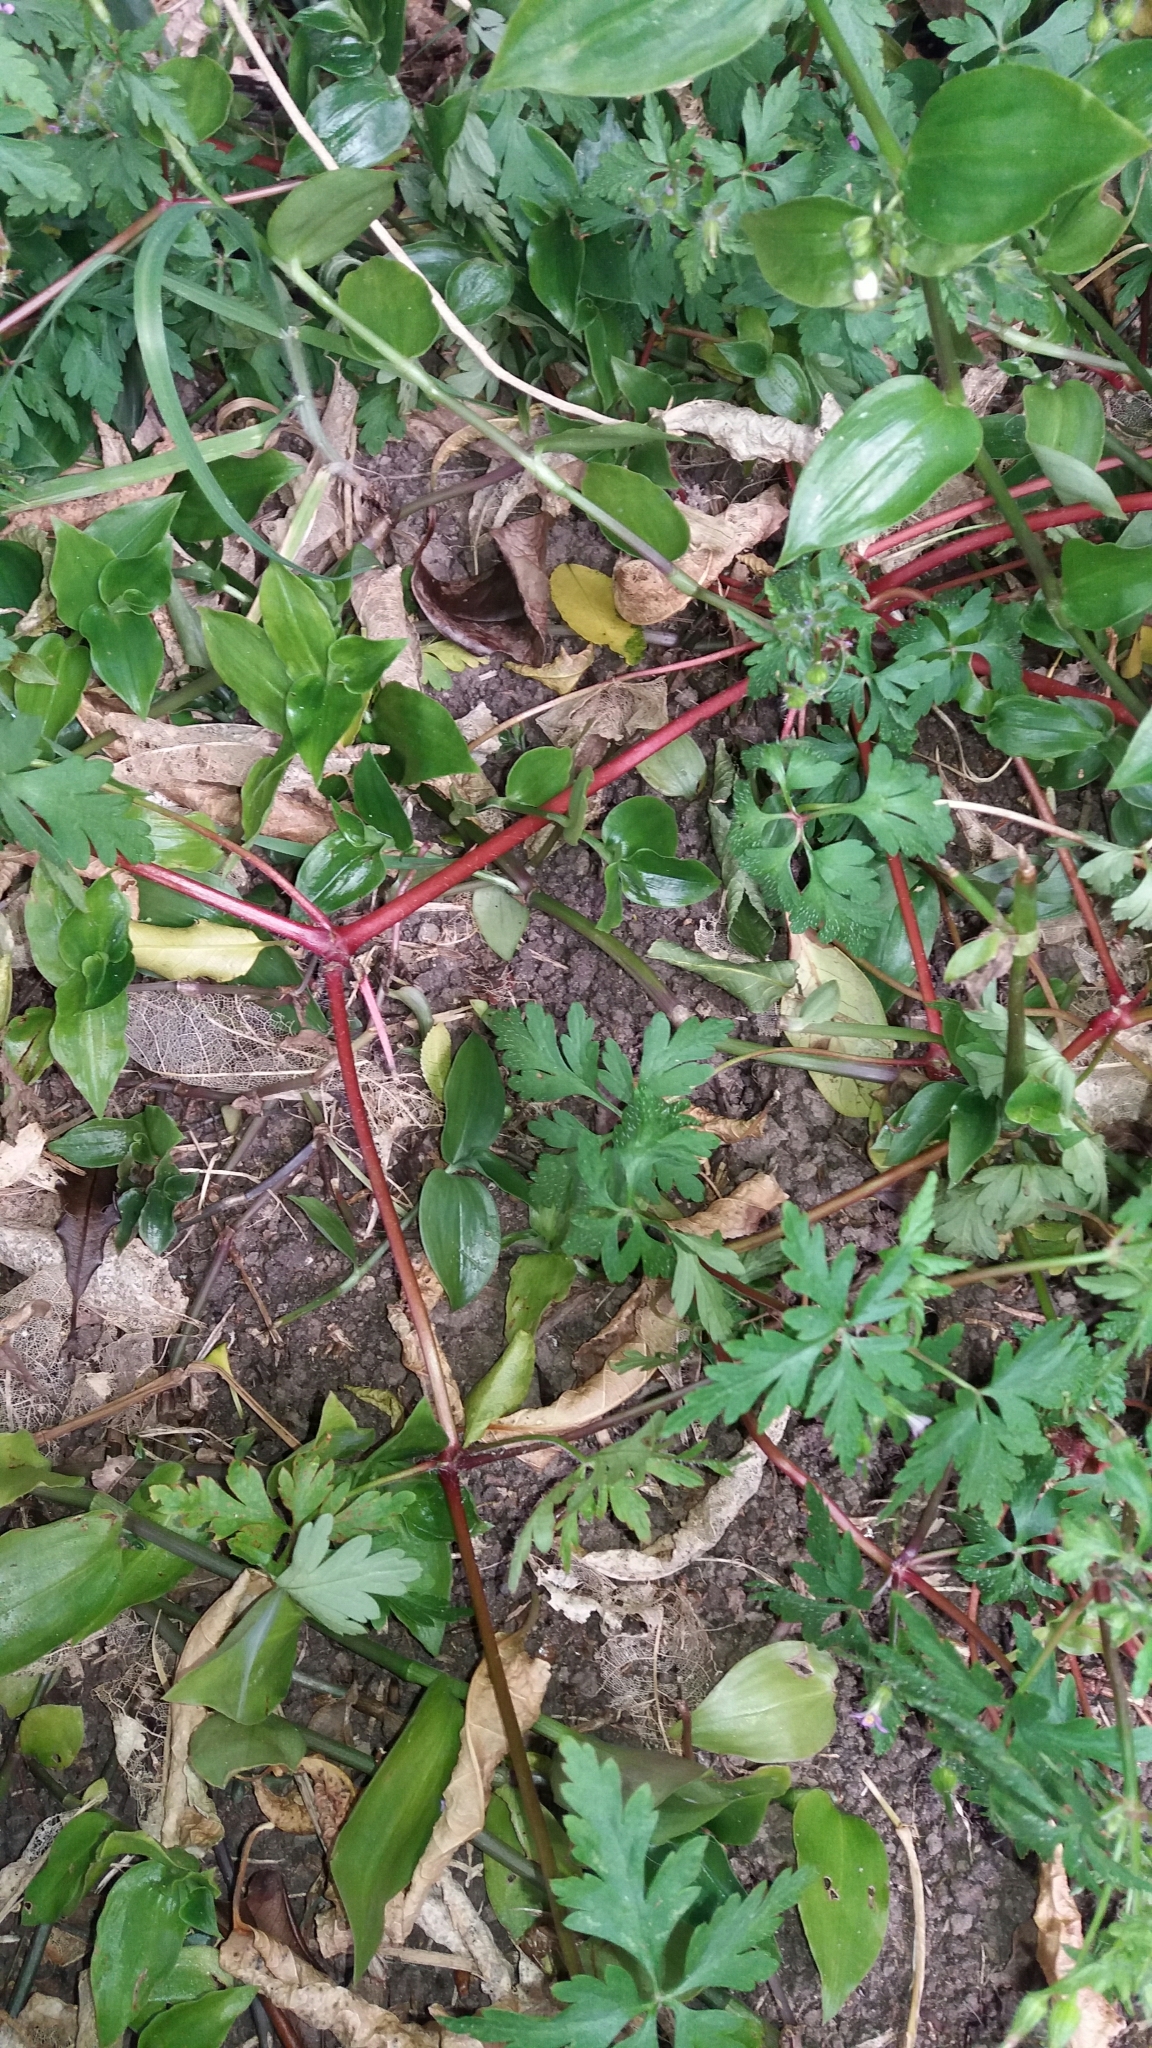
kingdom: Plantae
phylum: Tracheophyta
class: Magnoliopsida
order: Geraniales
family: Geraniaceae
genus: Geranium
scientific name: Geranium robertianum
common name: Herb-robert
